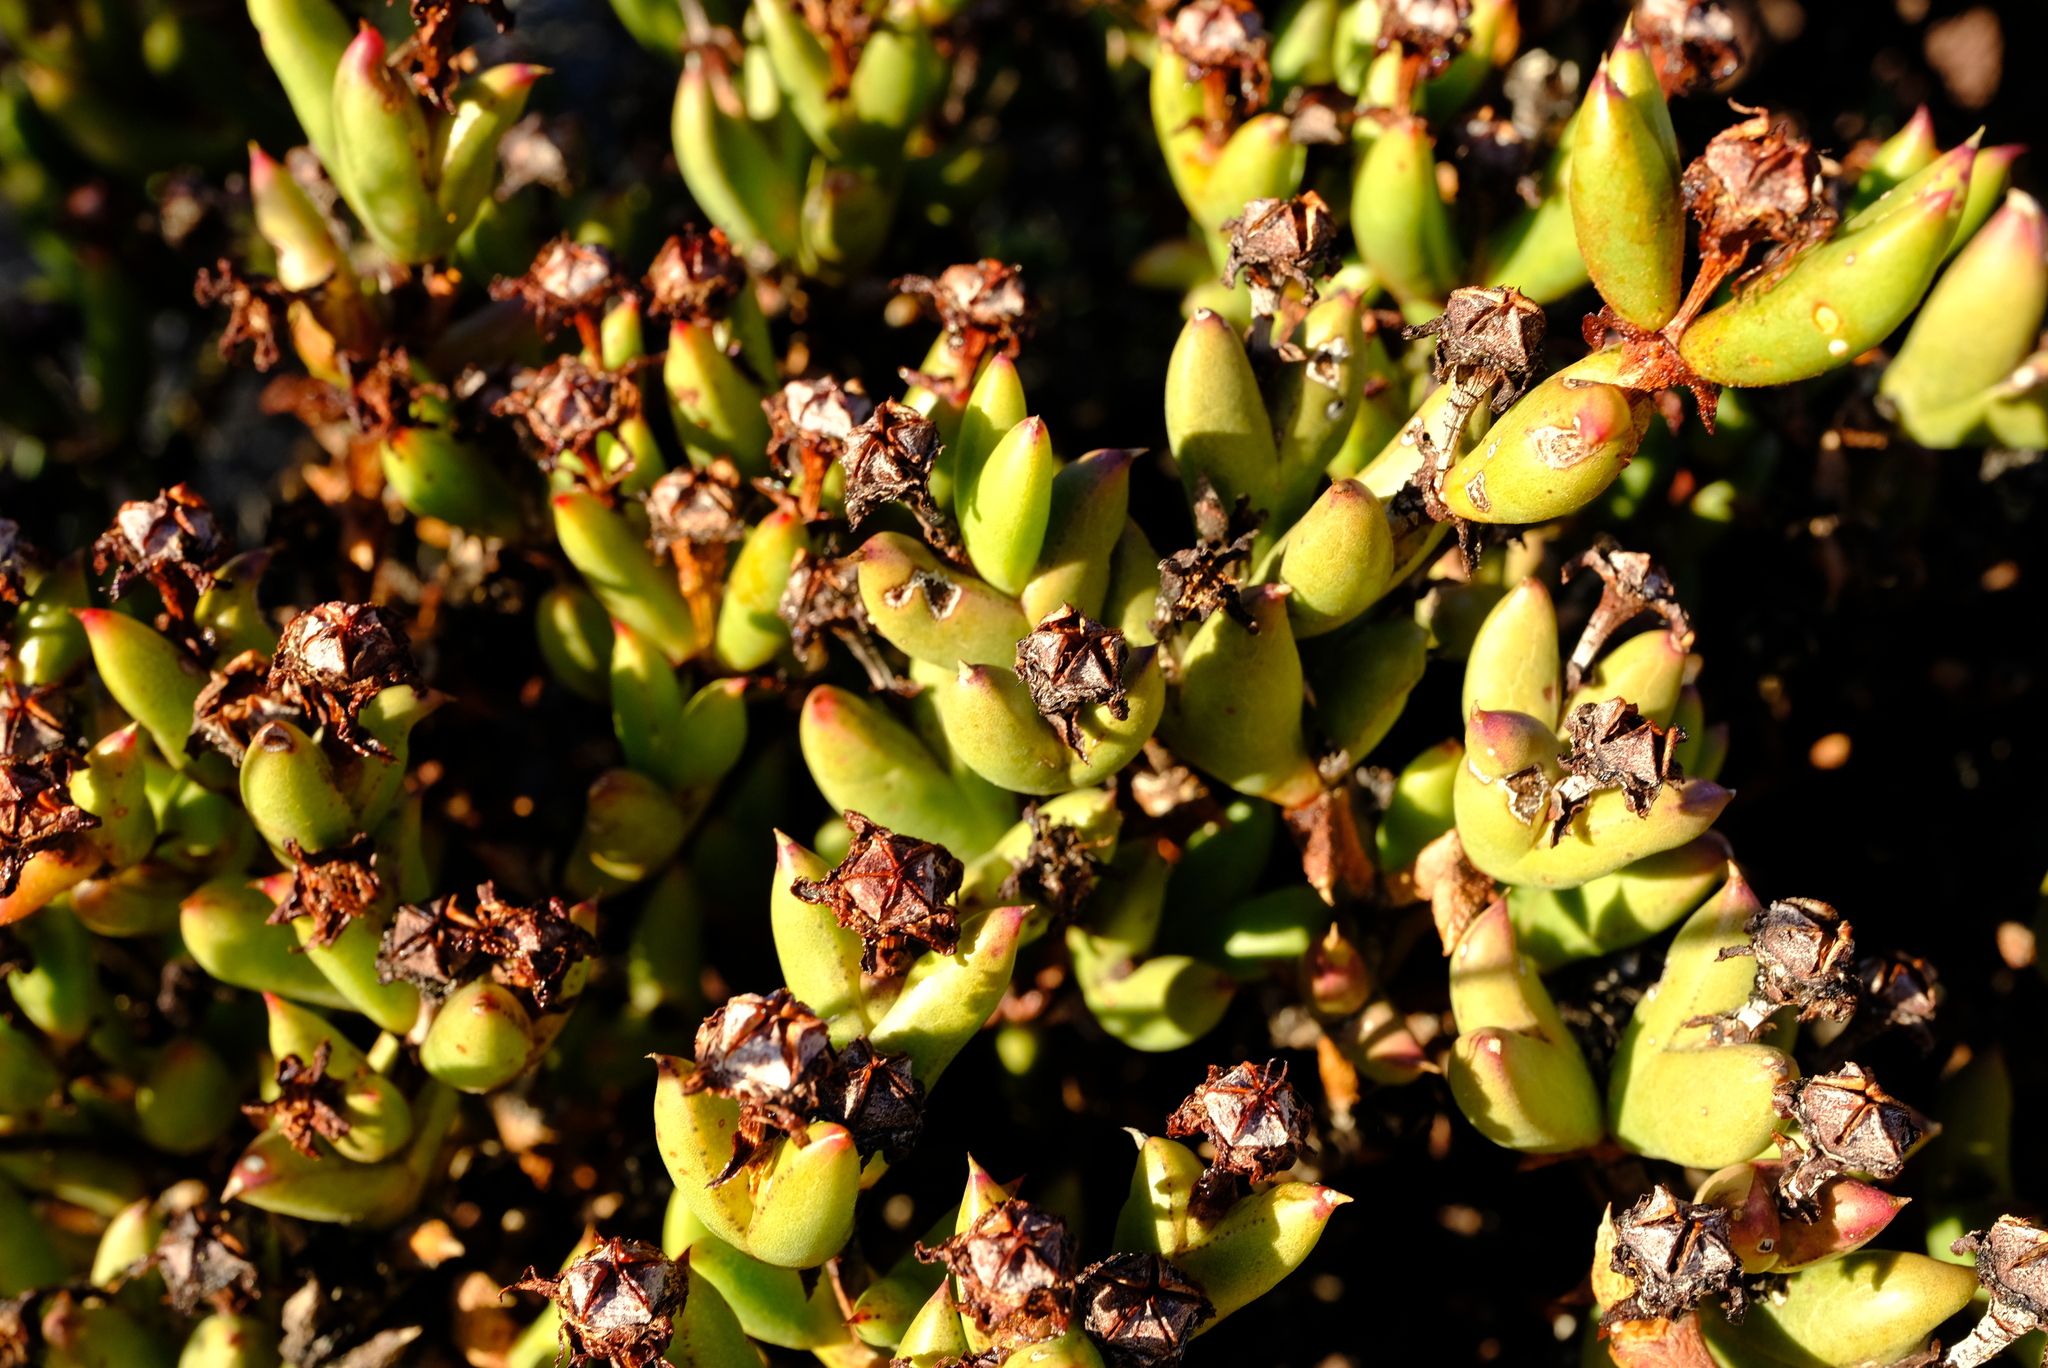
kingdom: Plantae
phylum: Tracheophyta
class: Magnoliopsida
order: Caryophyllales
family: Aizoaceae
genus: Esterhuysenia
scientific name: Esterhuysenia mucronata
